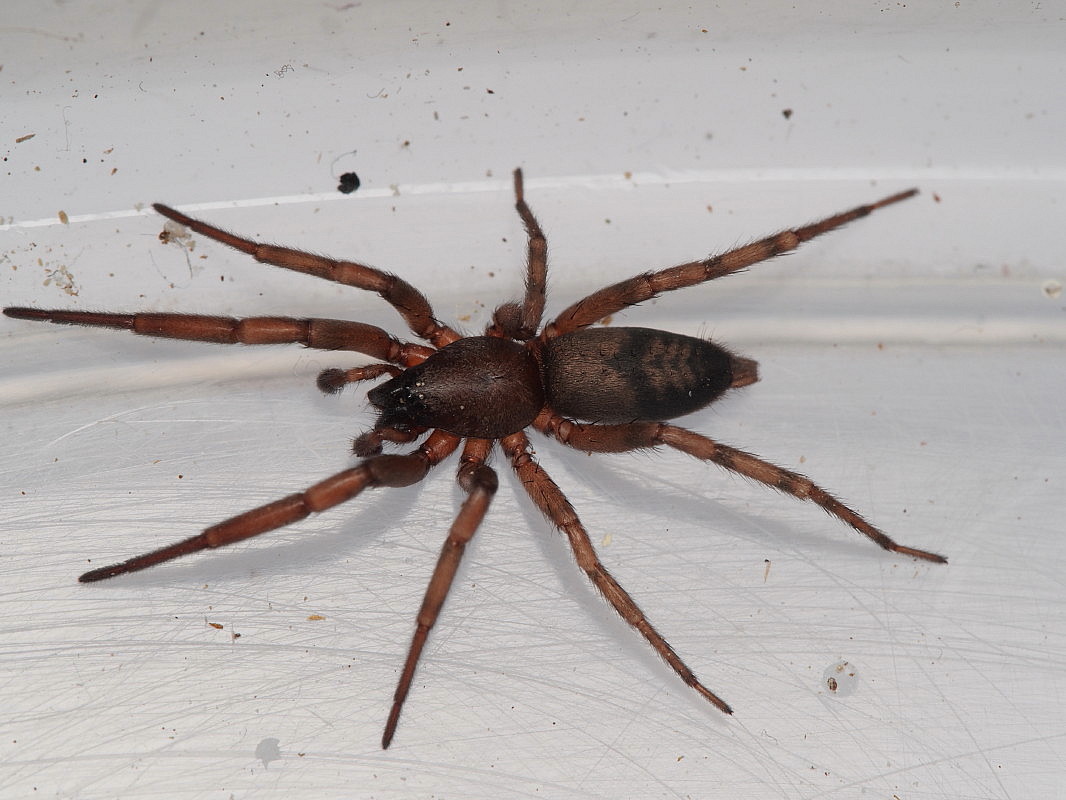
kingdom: Animalia
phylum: Arthropoda
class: Arachnida
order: Araneae
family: Gnaphosidae
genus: Intruda
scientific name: Intruda signata
